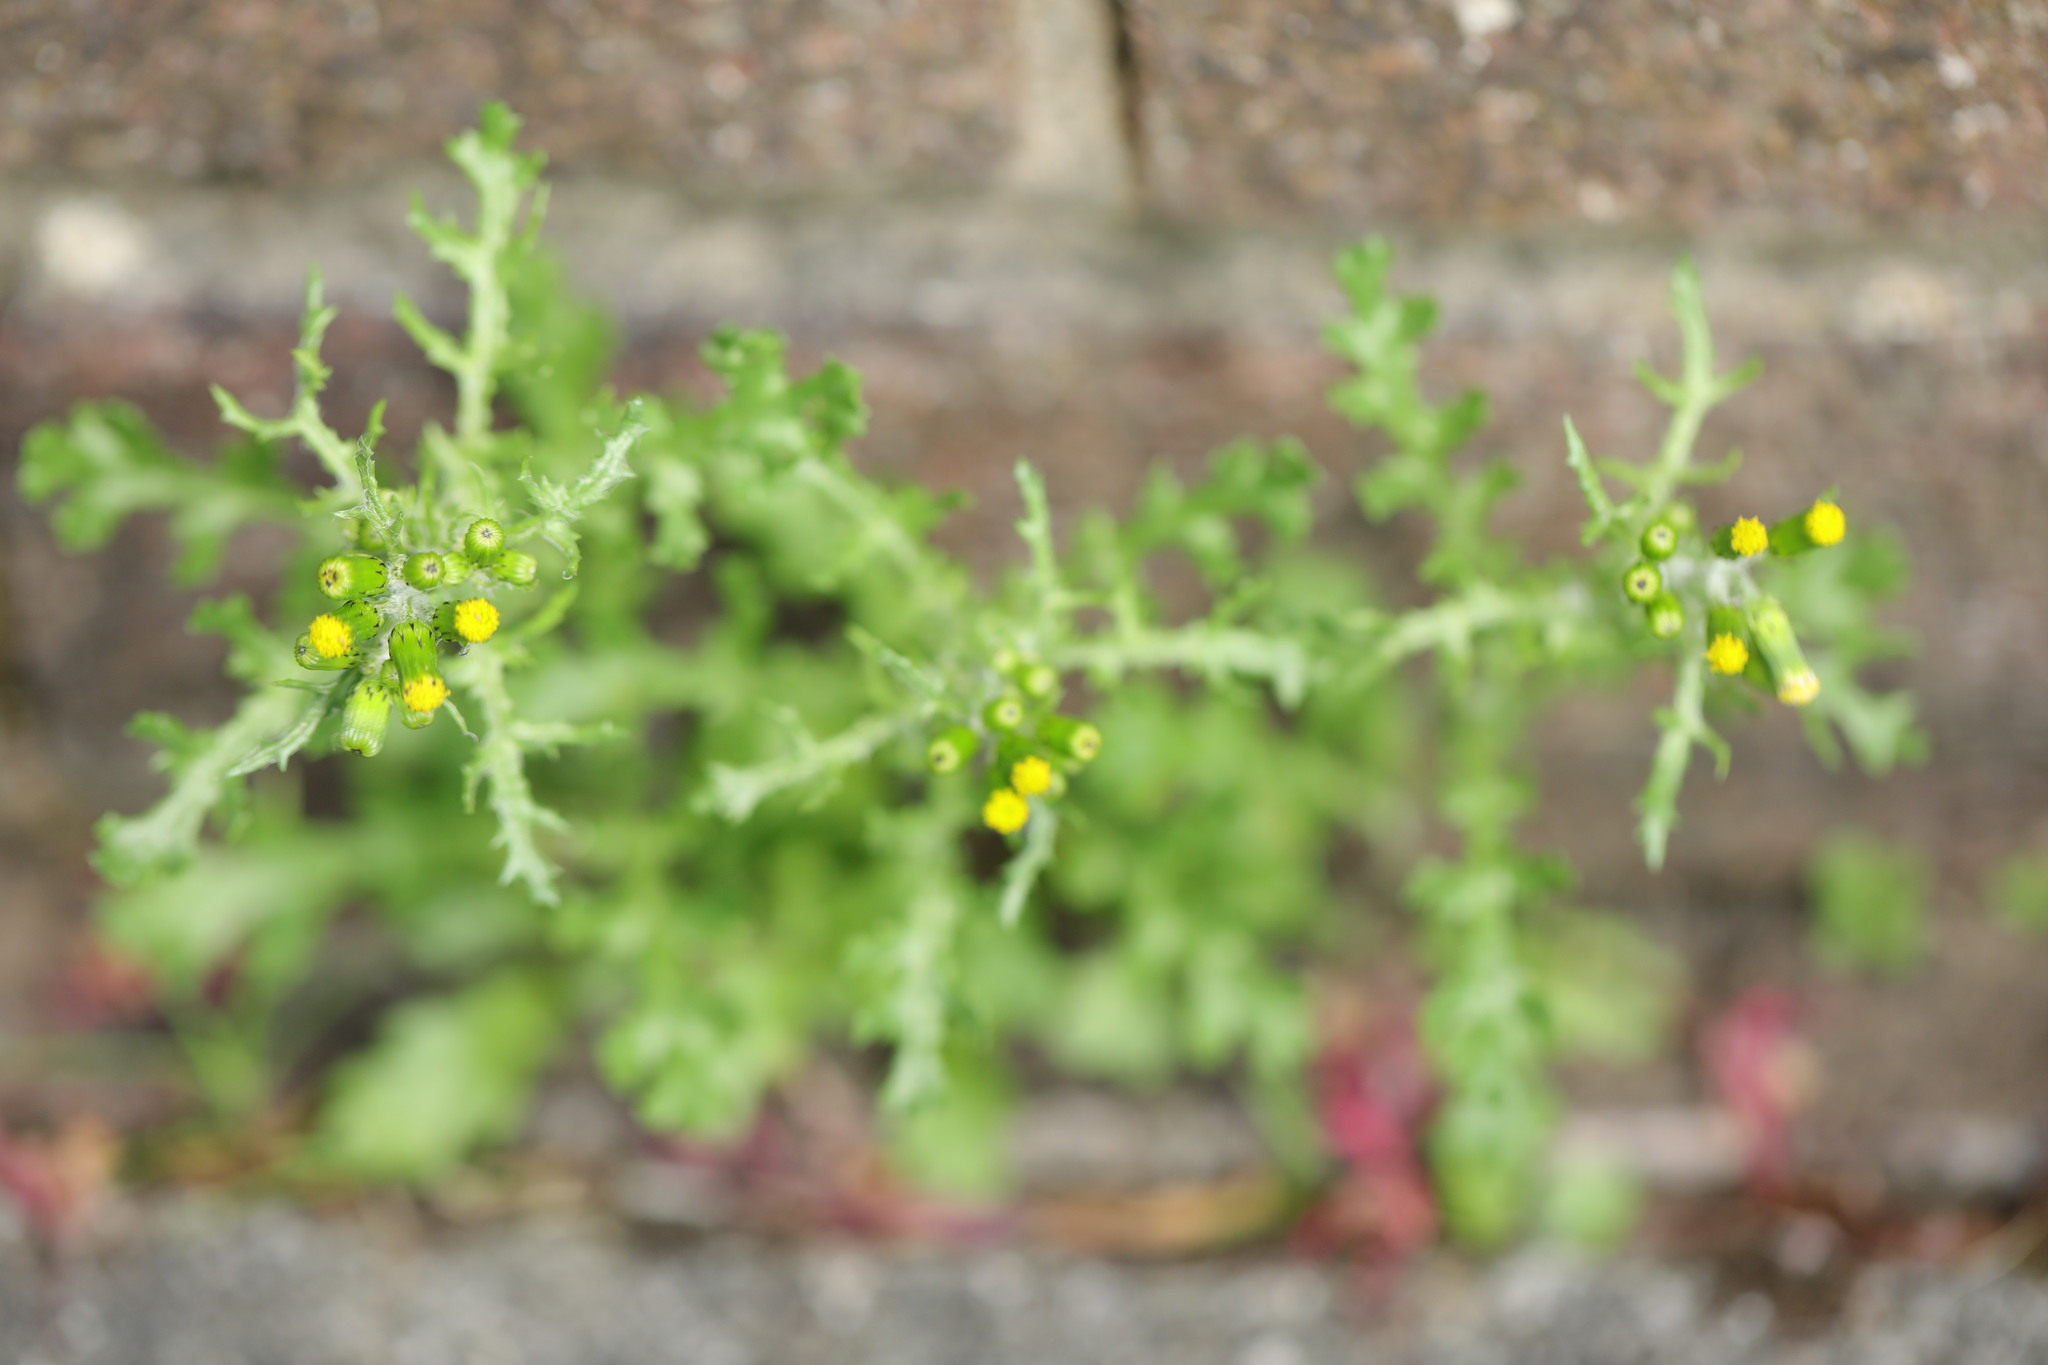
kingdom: Plantae
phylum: Tracheophyta
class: Magnoliopsida
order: Asterales
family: Asteraceae
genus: Senecio
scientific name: Senecio vulgaris
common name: Old-man-in-the-spring
